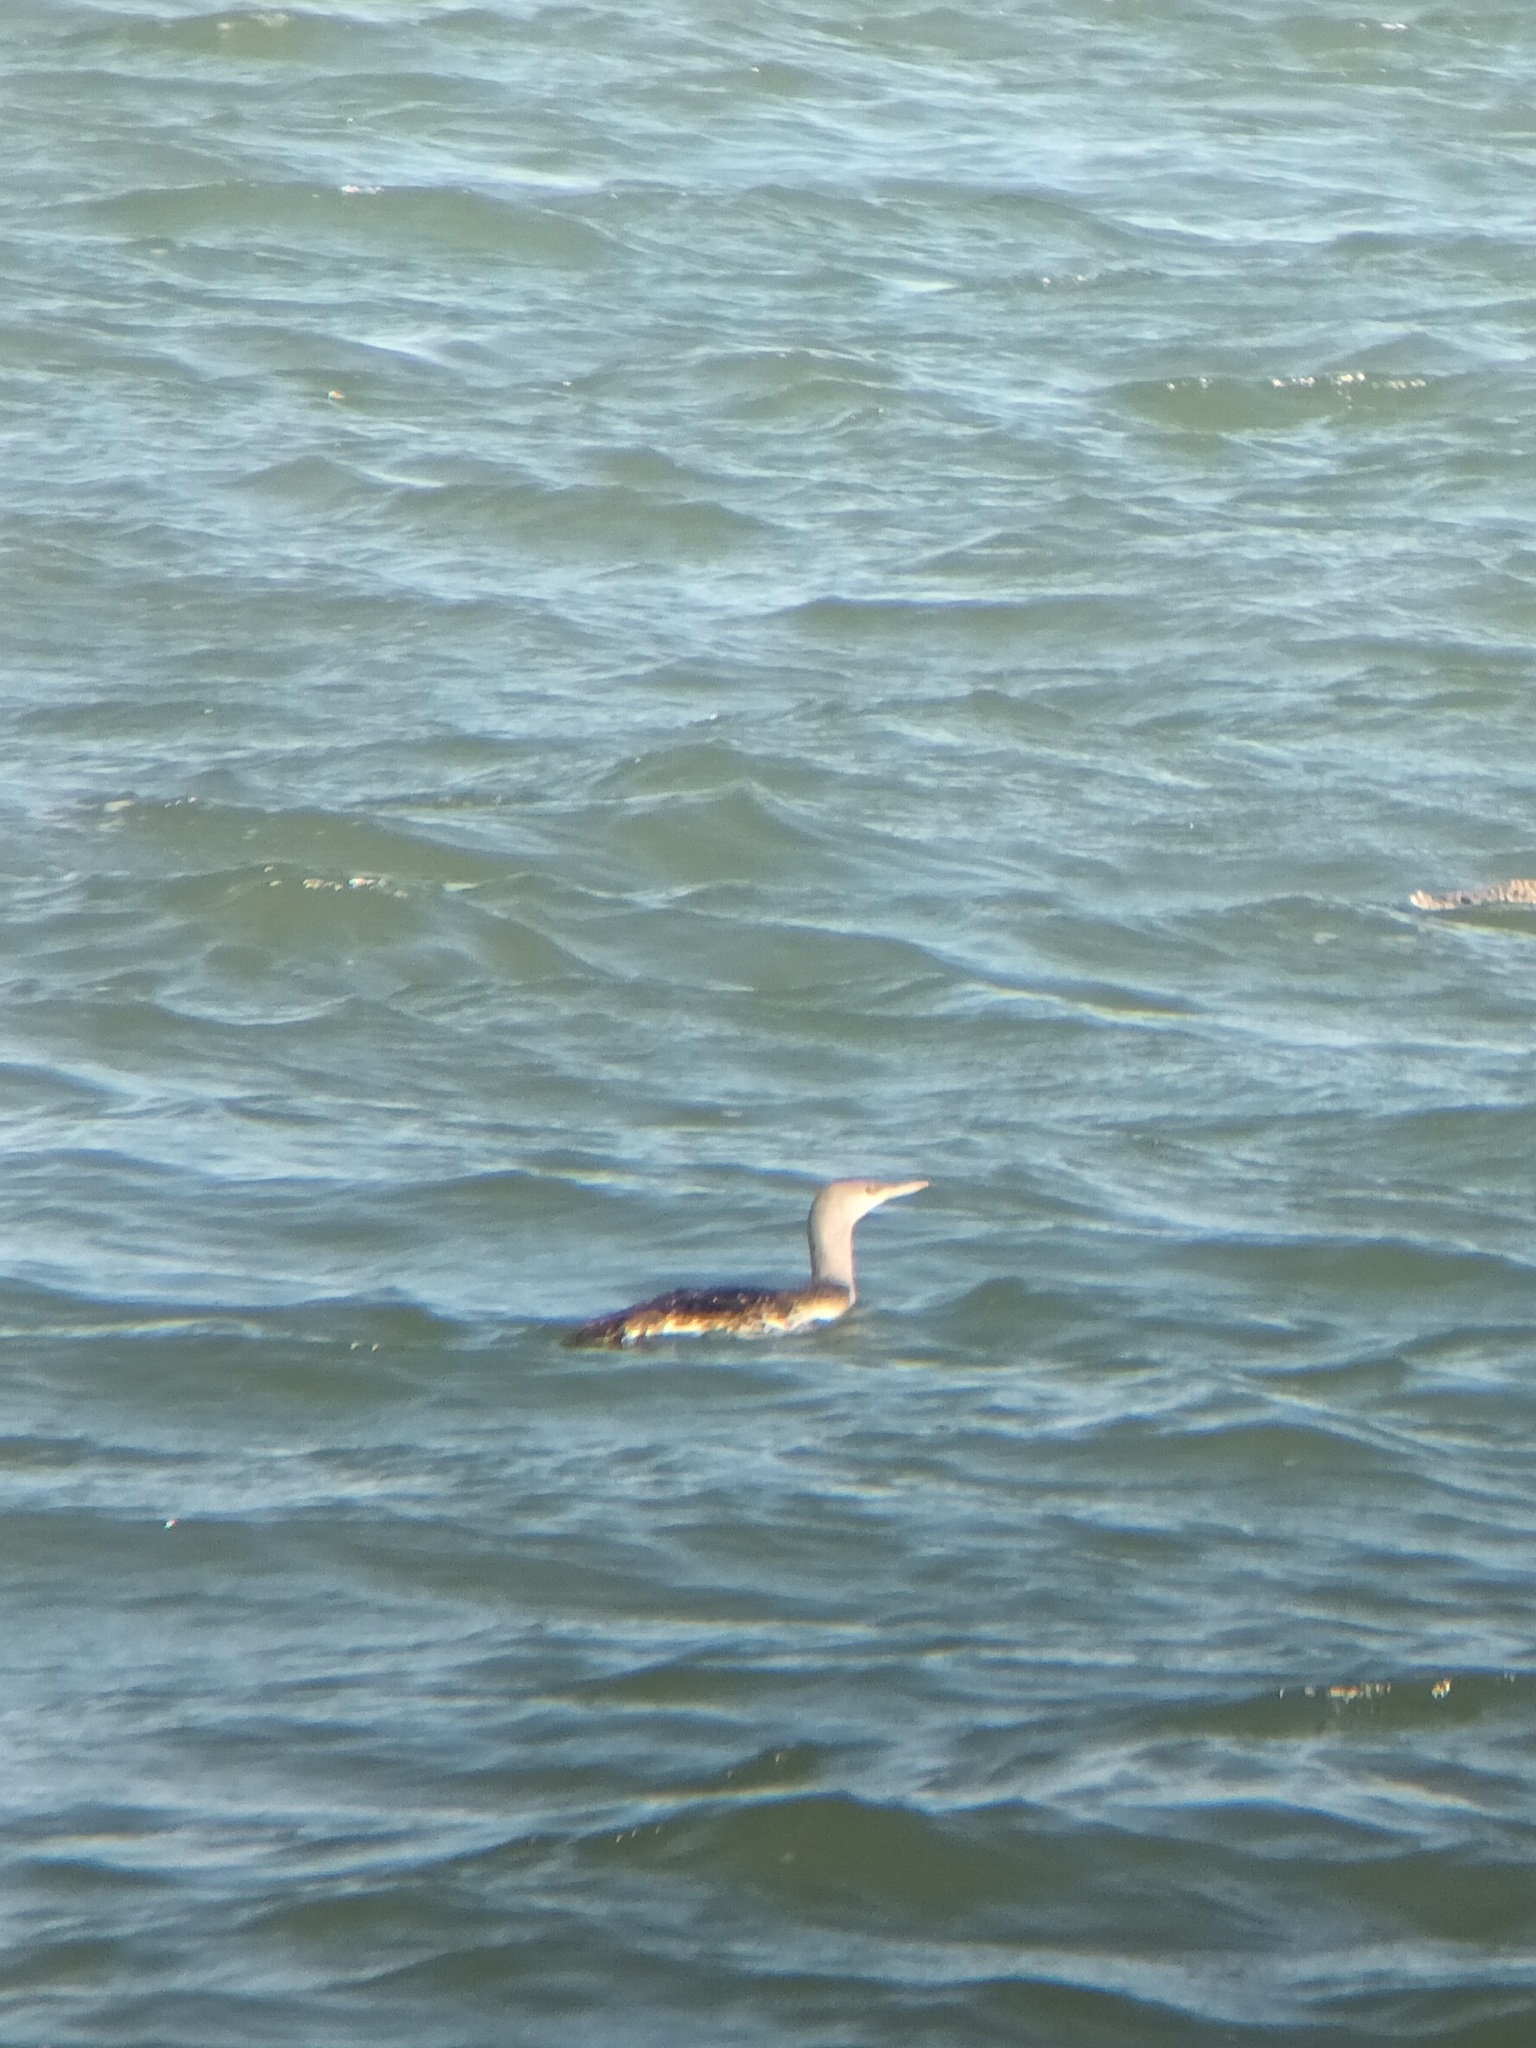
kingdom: Animalia
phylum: Chordata
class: Aves
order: Gaviiformes
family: Gaviidae
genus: Gavia
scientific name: Gavia stellata
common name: Red-throated loon
